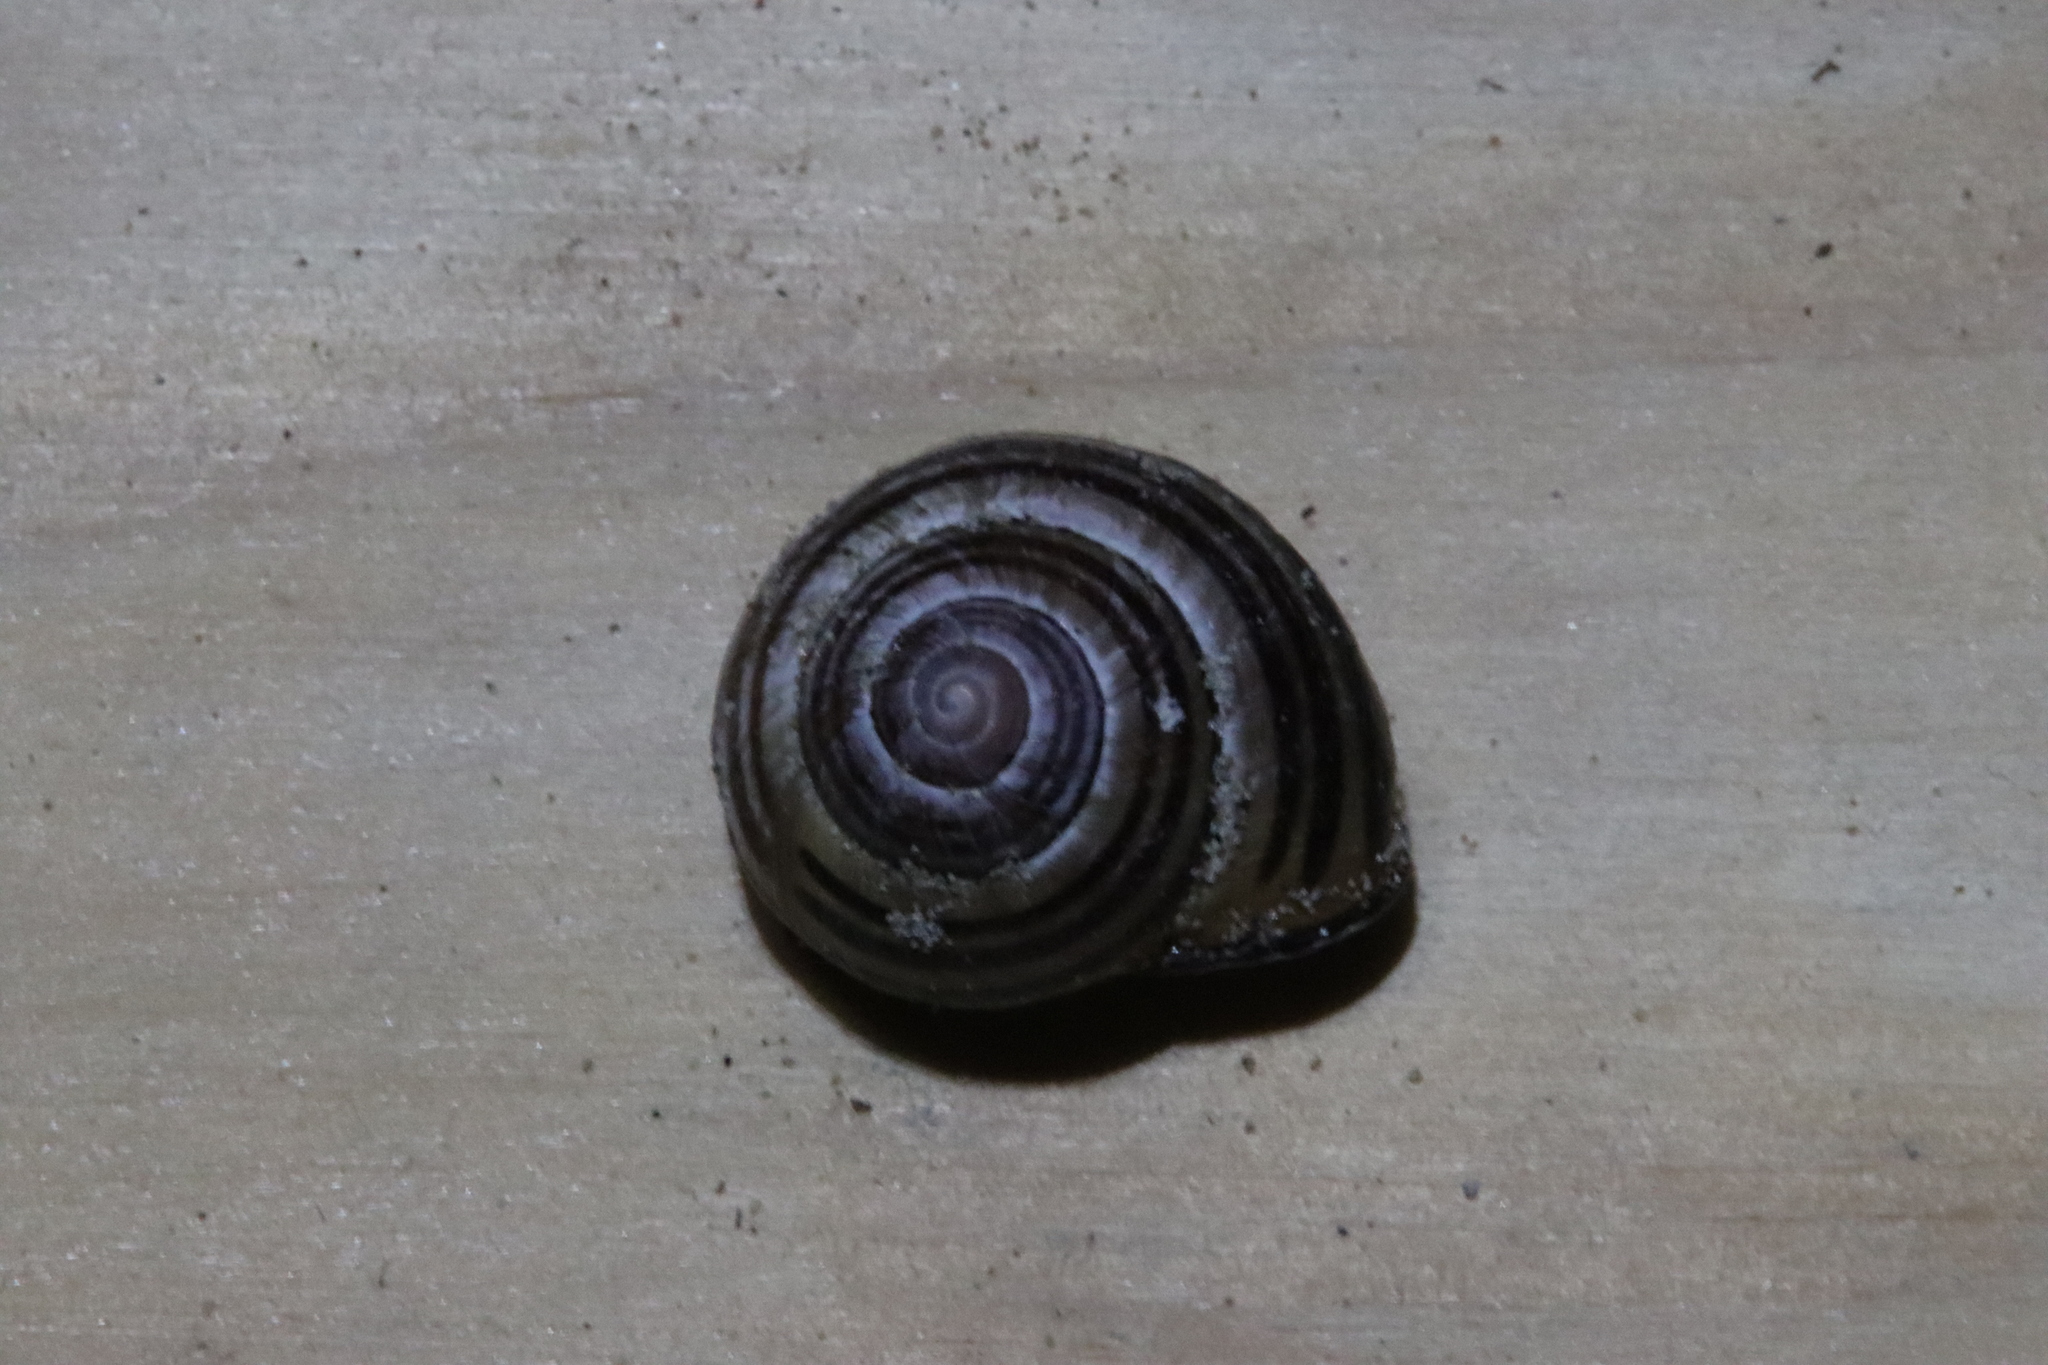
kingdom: Animalia
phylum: Mollusca
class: Gastropoda
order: Stylommatophora
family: Helicidae
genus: Cepaea
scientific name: Cepaea nemoralis
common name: Grovesnail
